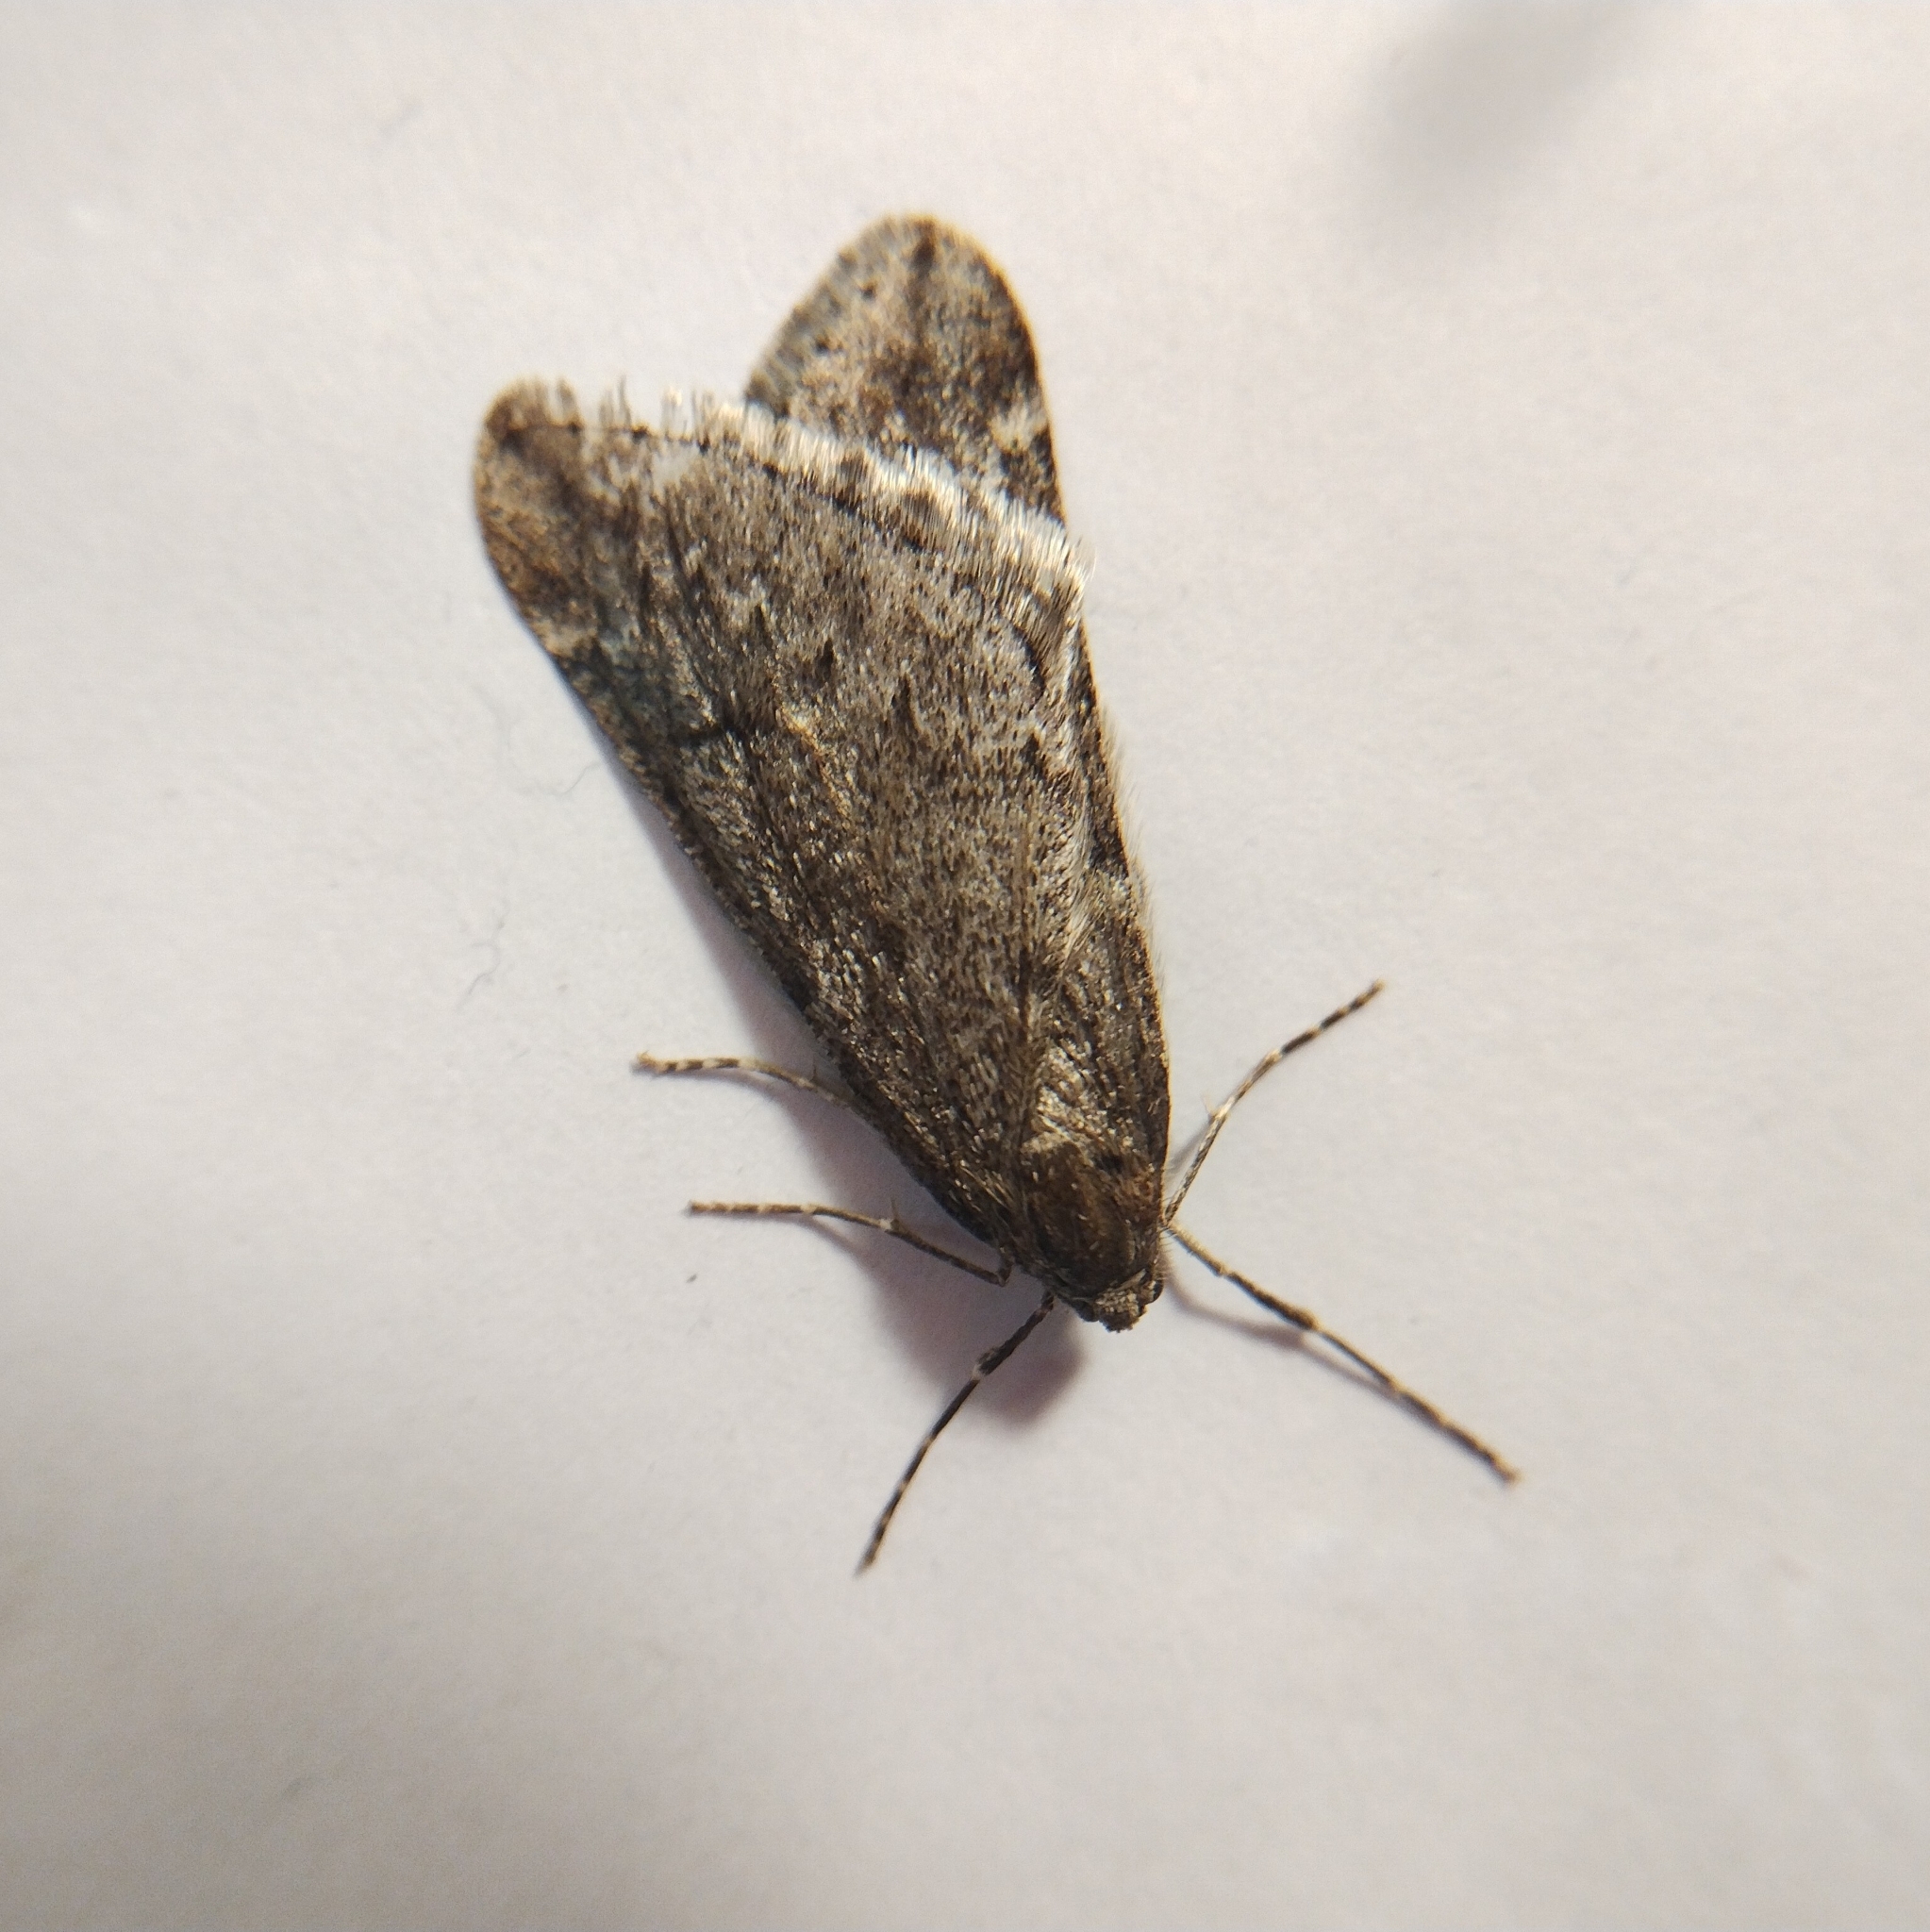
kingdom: Animalia
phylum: Arthropoda
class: Insecta
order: Lepidoptera
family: Geometridae
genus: Alsophila
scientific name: Alsophila aescularia
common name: March moth
